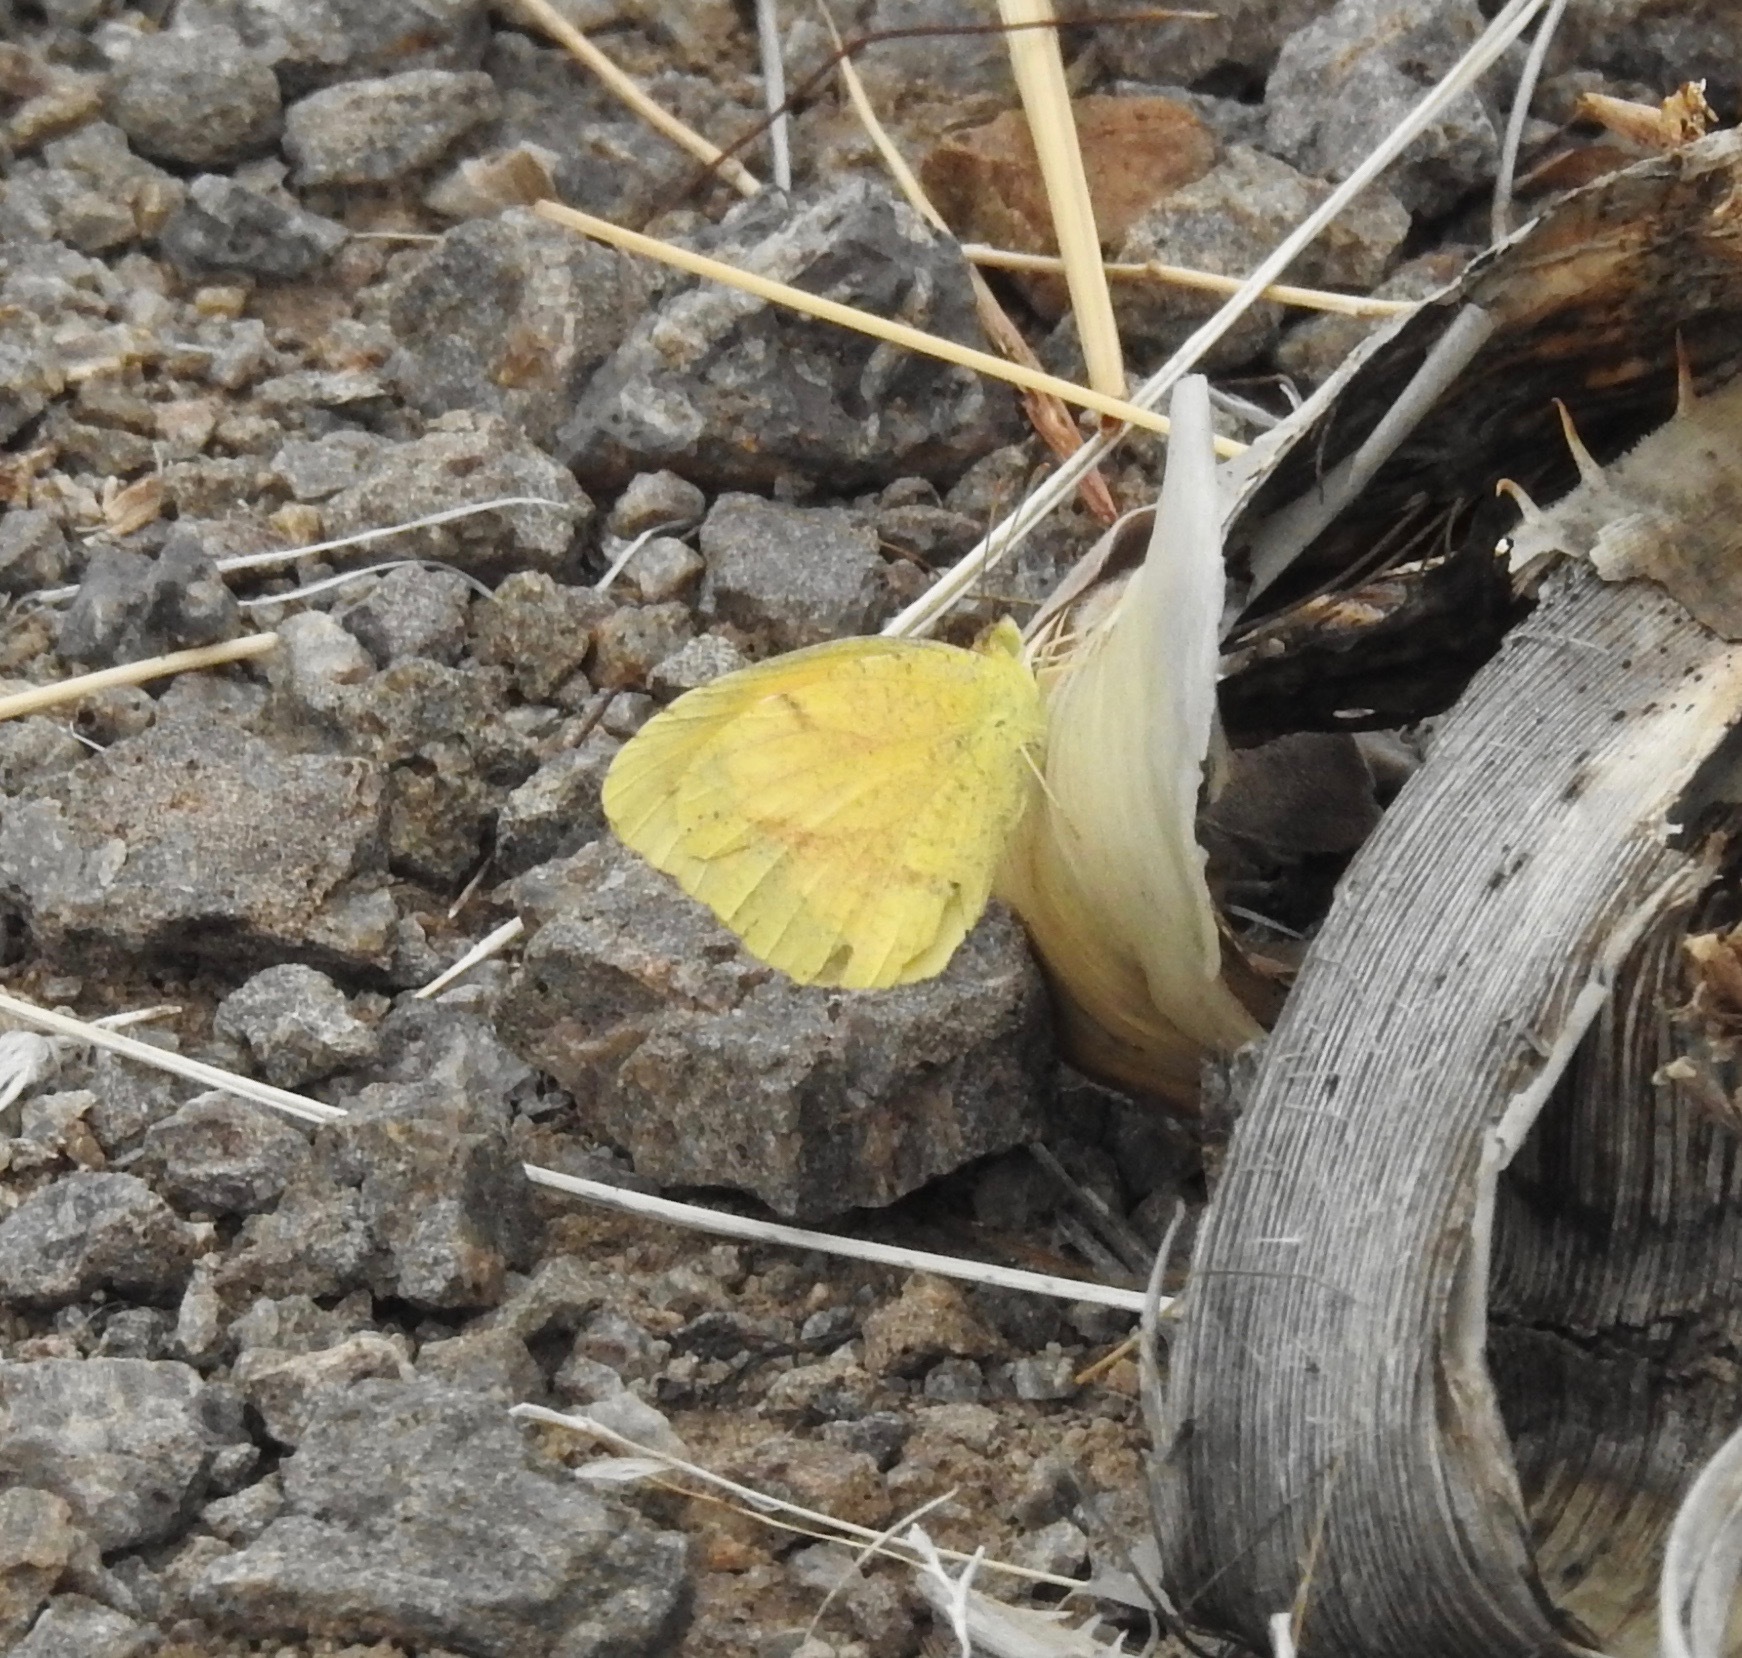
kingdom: Animalia
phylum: Arthropoda
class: Insecta
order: Lepidoptera
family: Pieridae
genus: Abaeis
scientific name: Abaeis nicippe
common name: Sleepy orange
